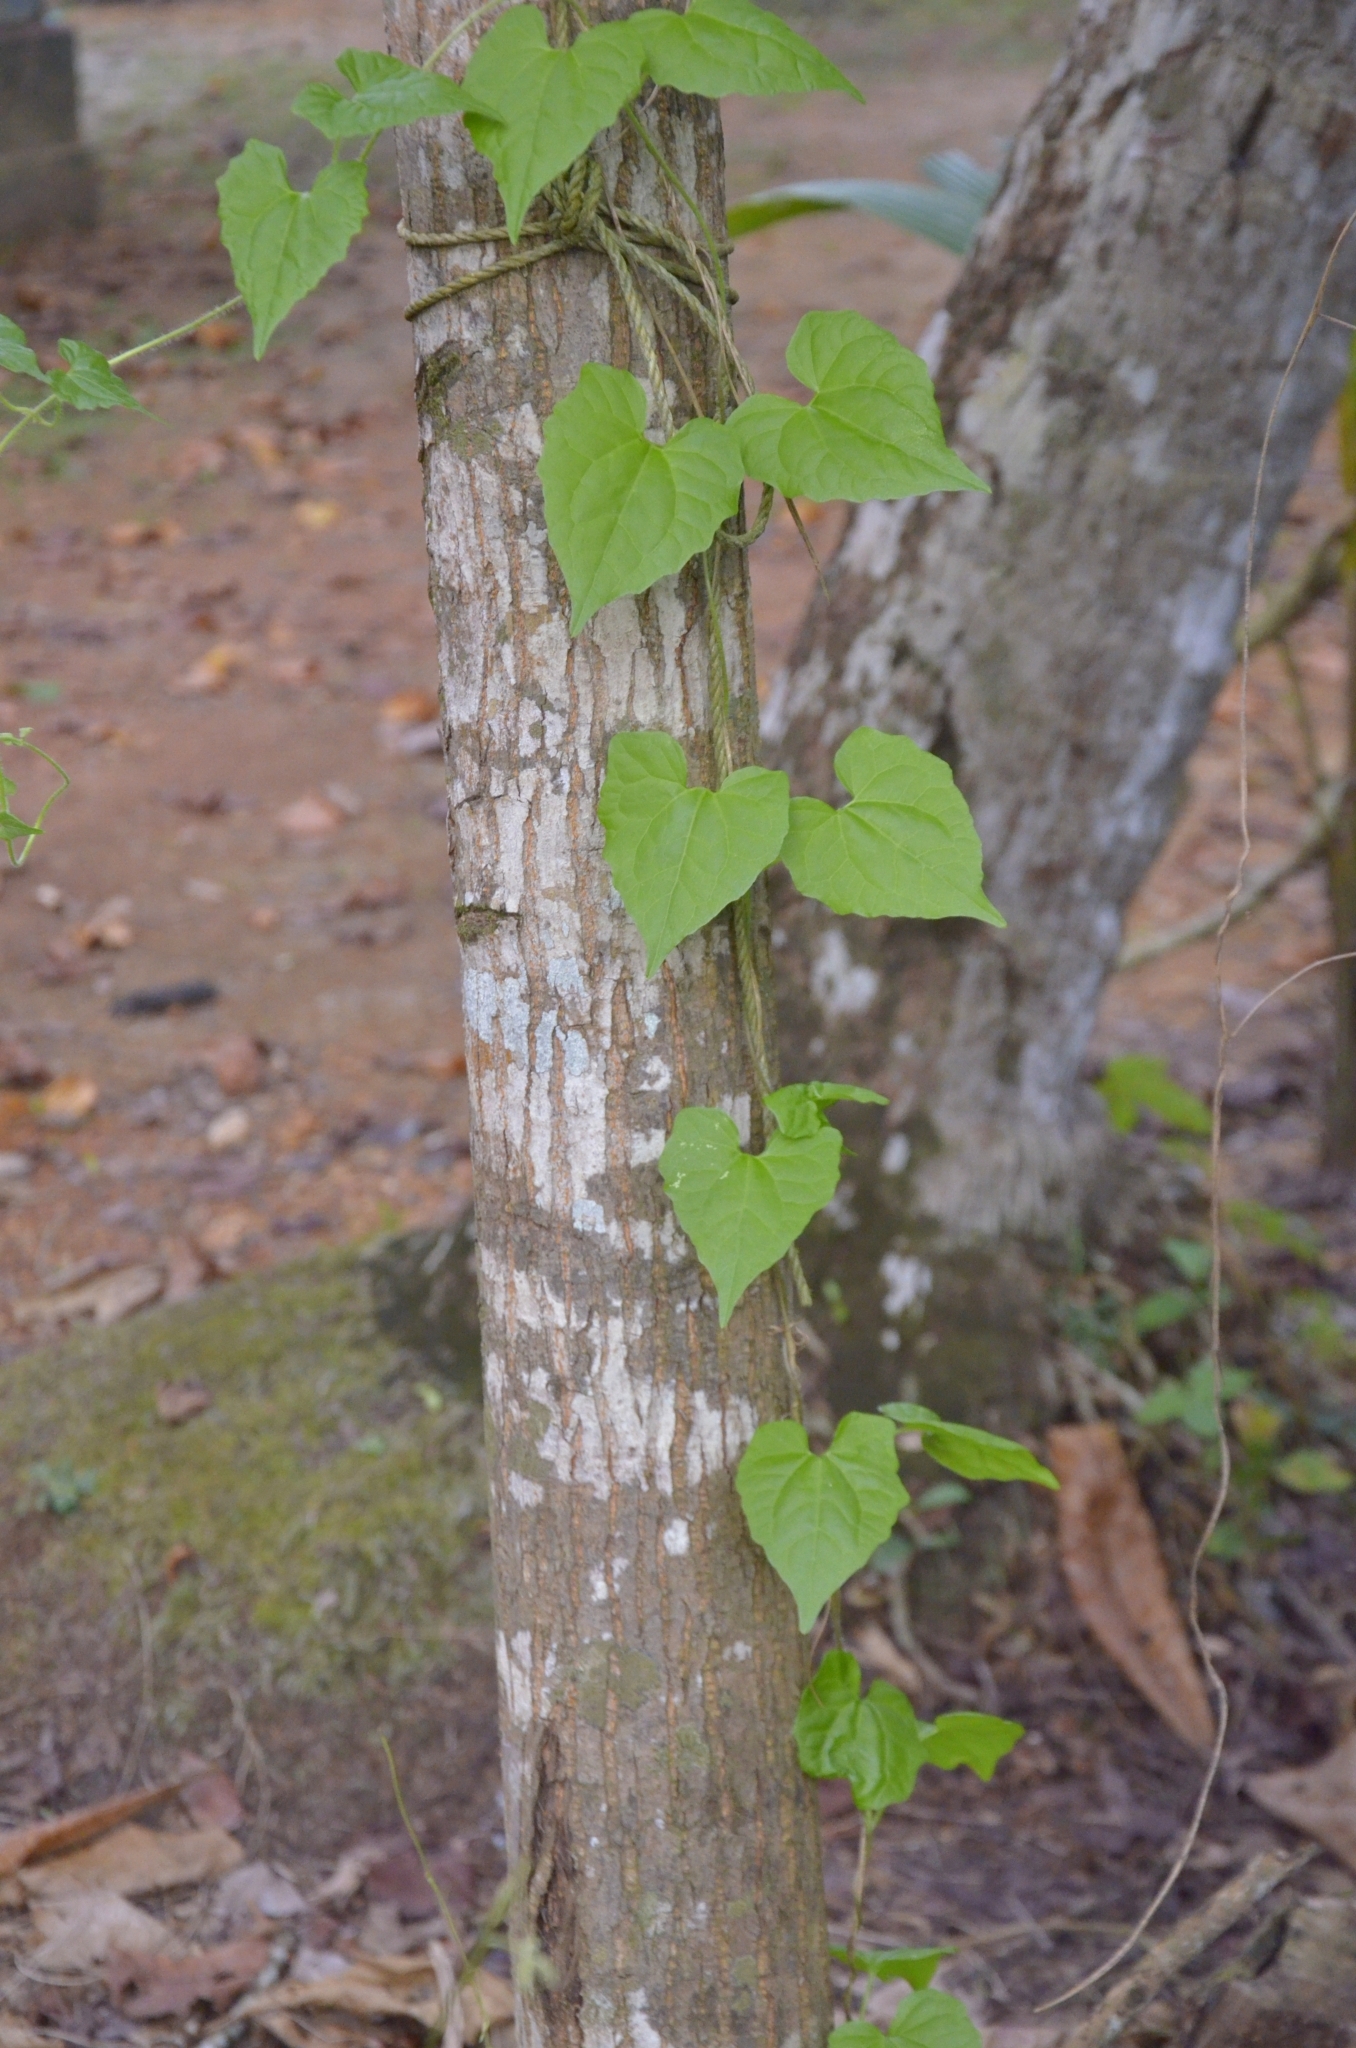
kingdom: Plantae
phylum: Tracheophyta
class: Magnoliopsida
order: Asterales
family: Asteraceae
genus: Mikania
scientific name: Mikania micrantha
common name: Mile-a-minute
